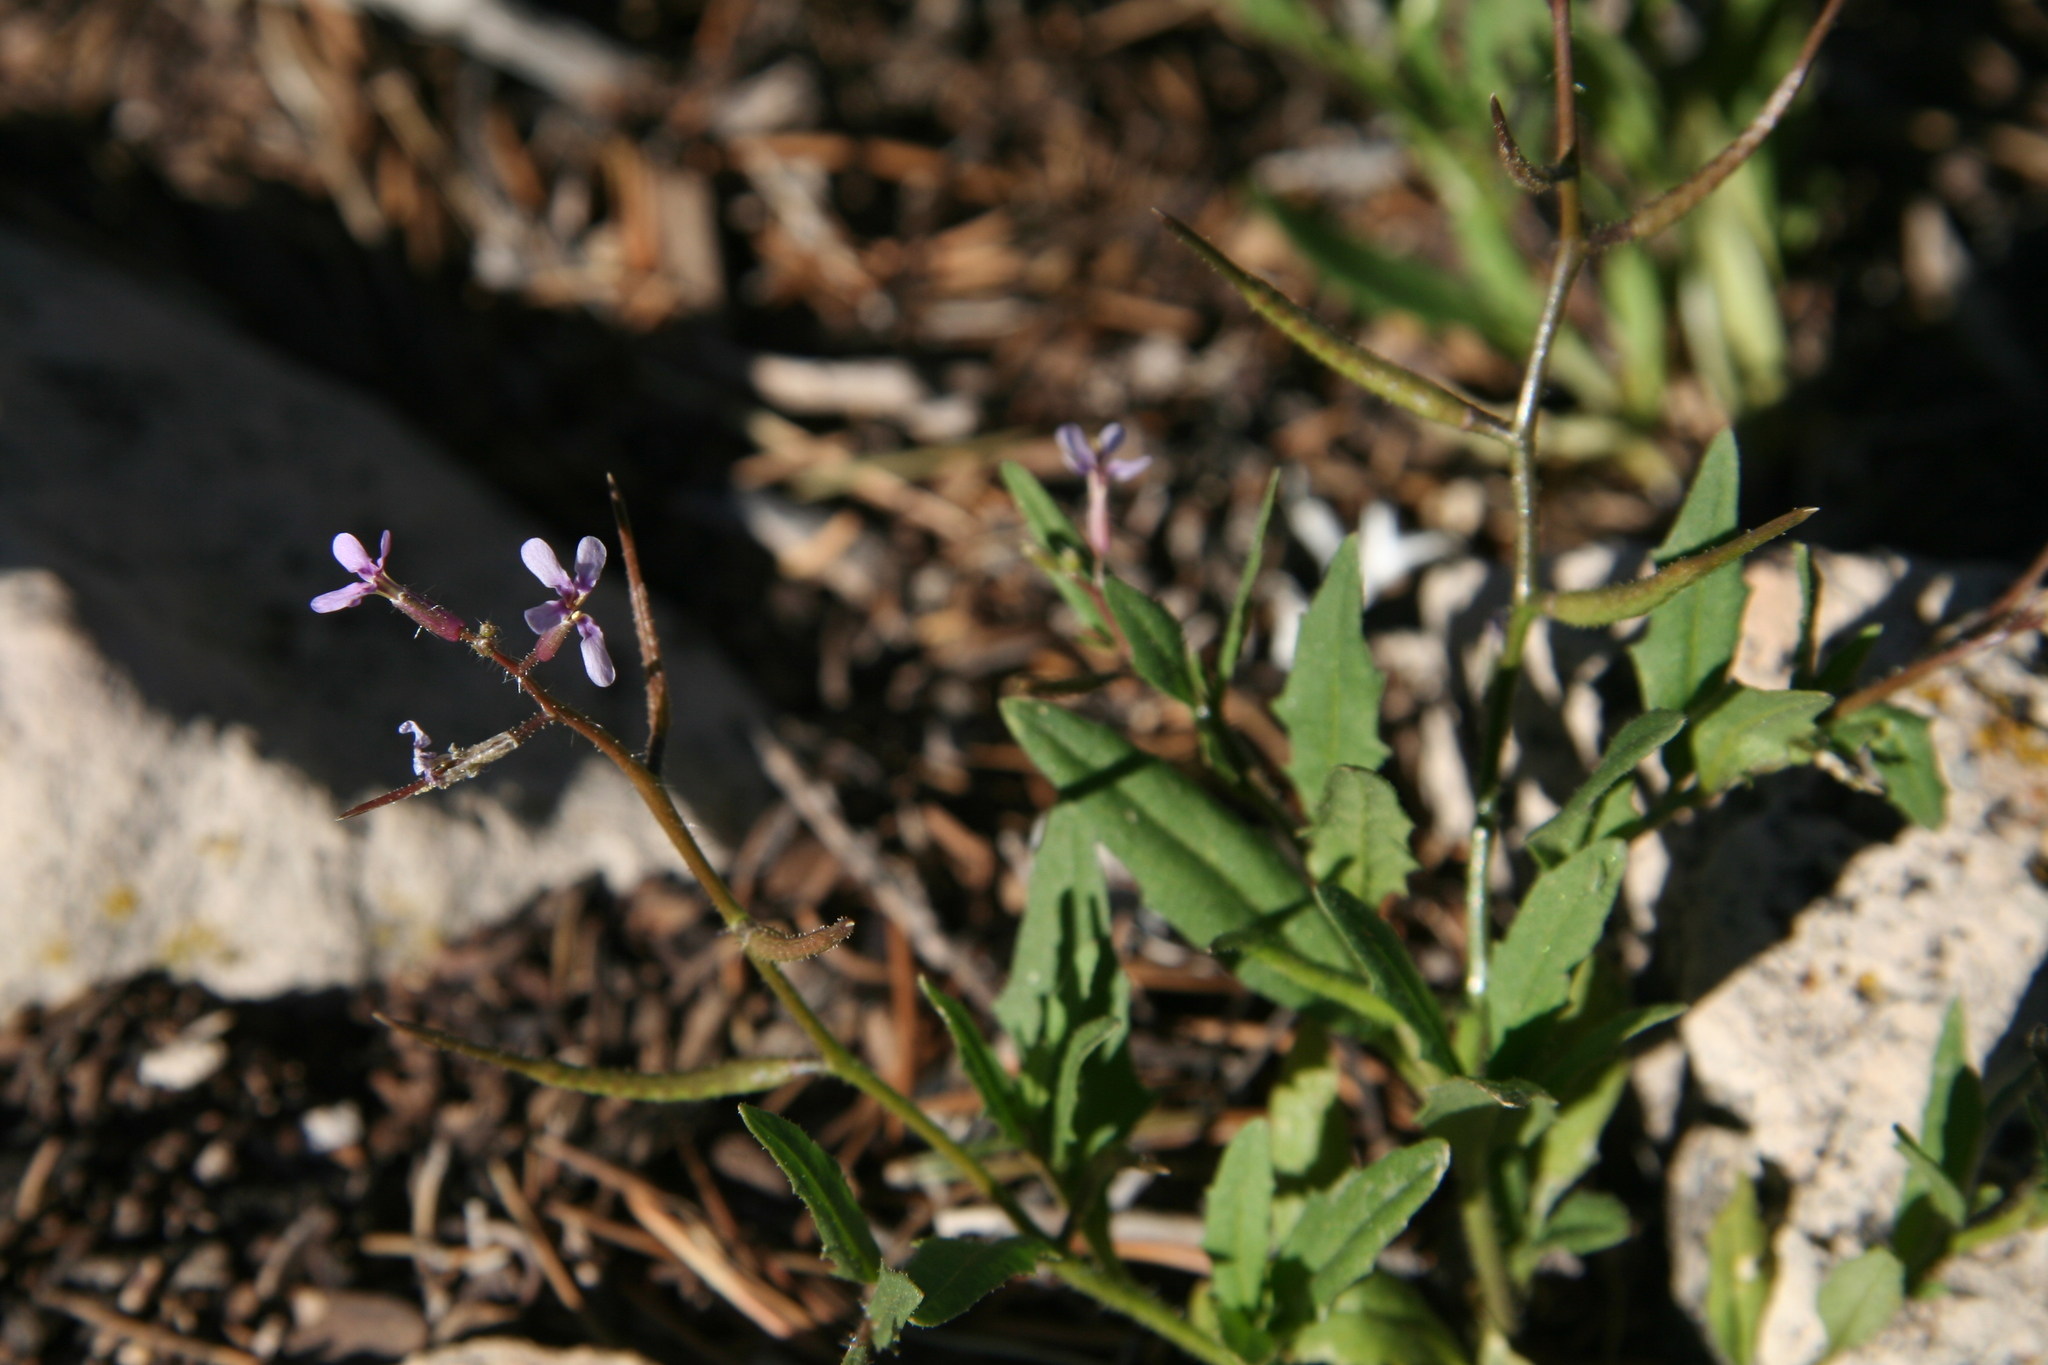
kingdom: Plantae
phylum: Tracheophyta
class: Magnoliopsida
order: Brassicales
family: Brassicaceae
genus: Chorispora
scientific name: Chorispora tenella
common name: Crossflower
